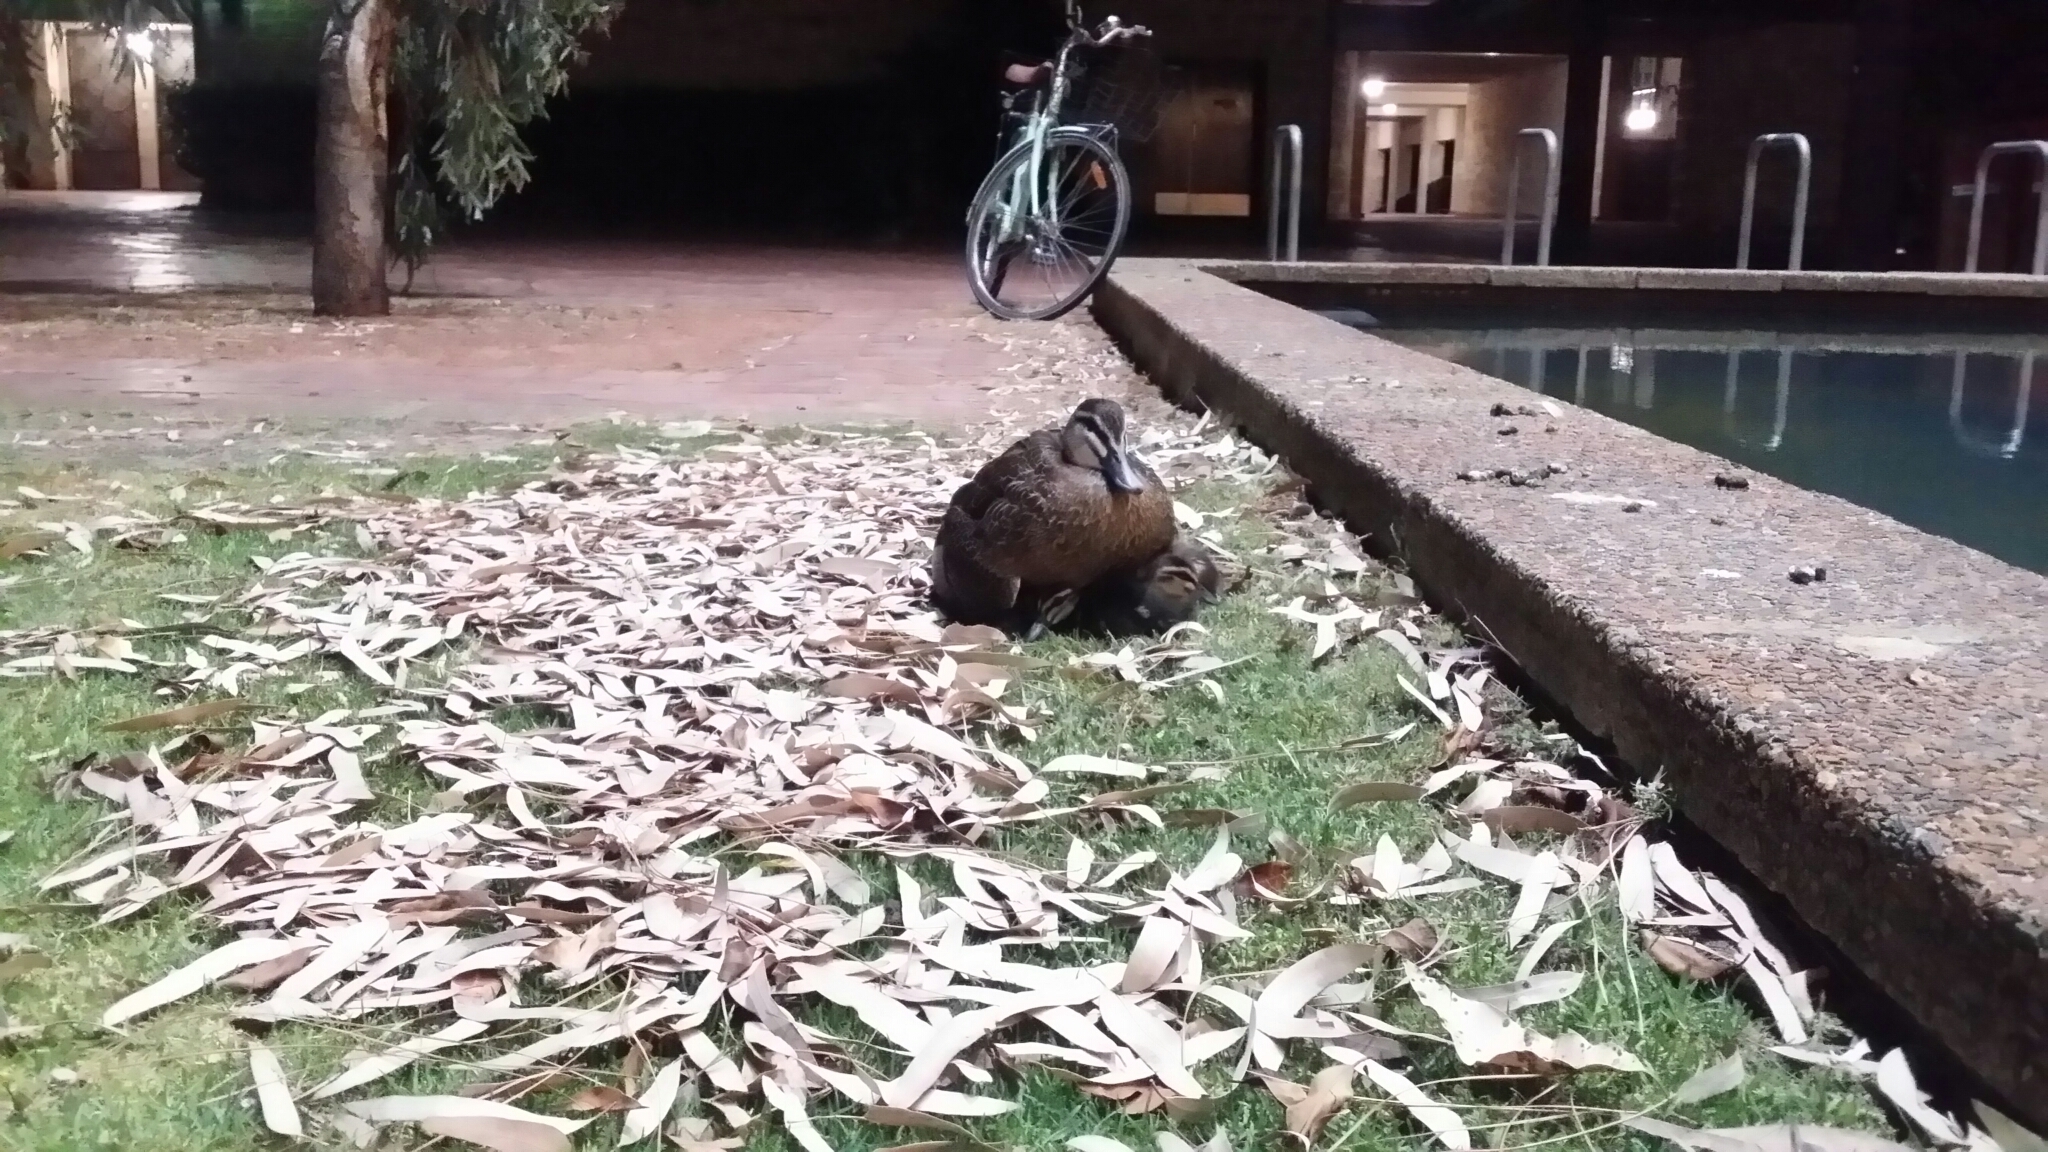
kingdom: Animalia
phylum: Chordata
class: Aves
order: Anseriformes
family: Anatidae
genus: Anas
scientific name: Anas superciliosa
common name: Pacific black duck
